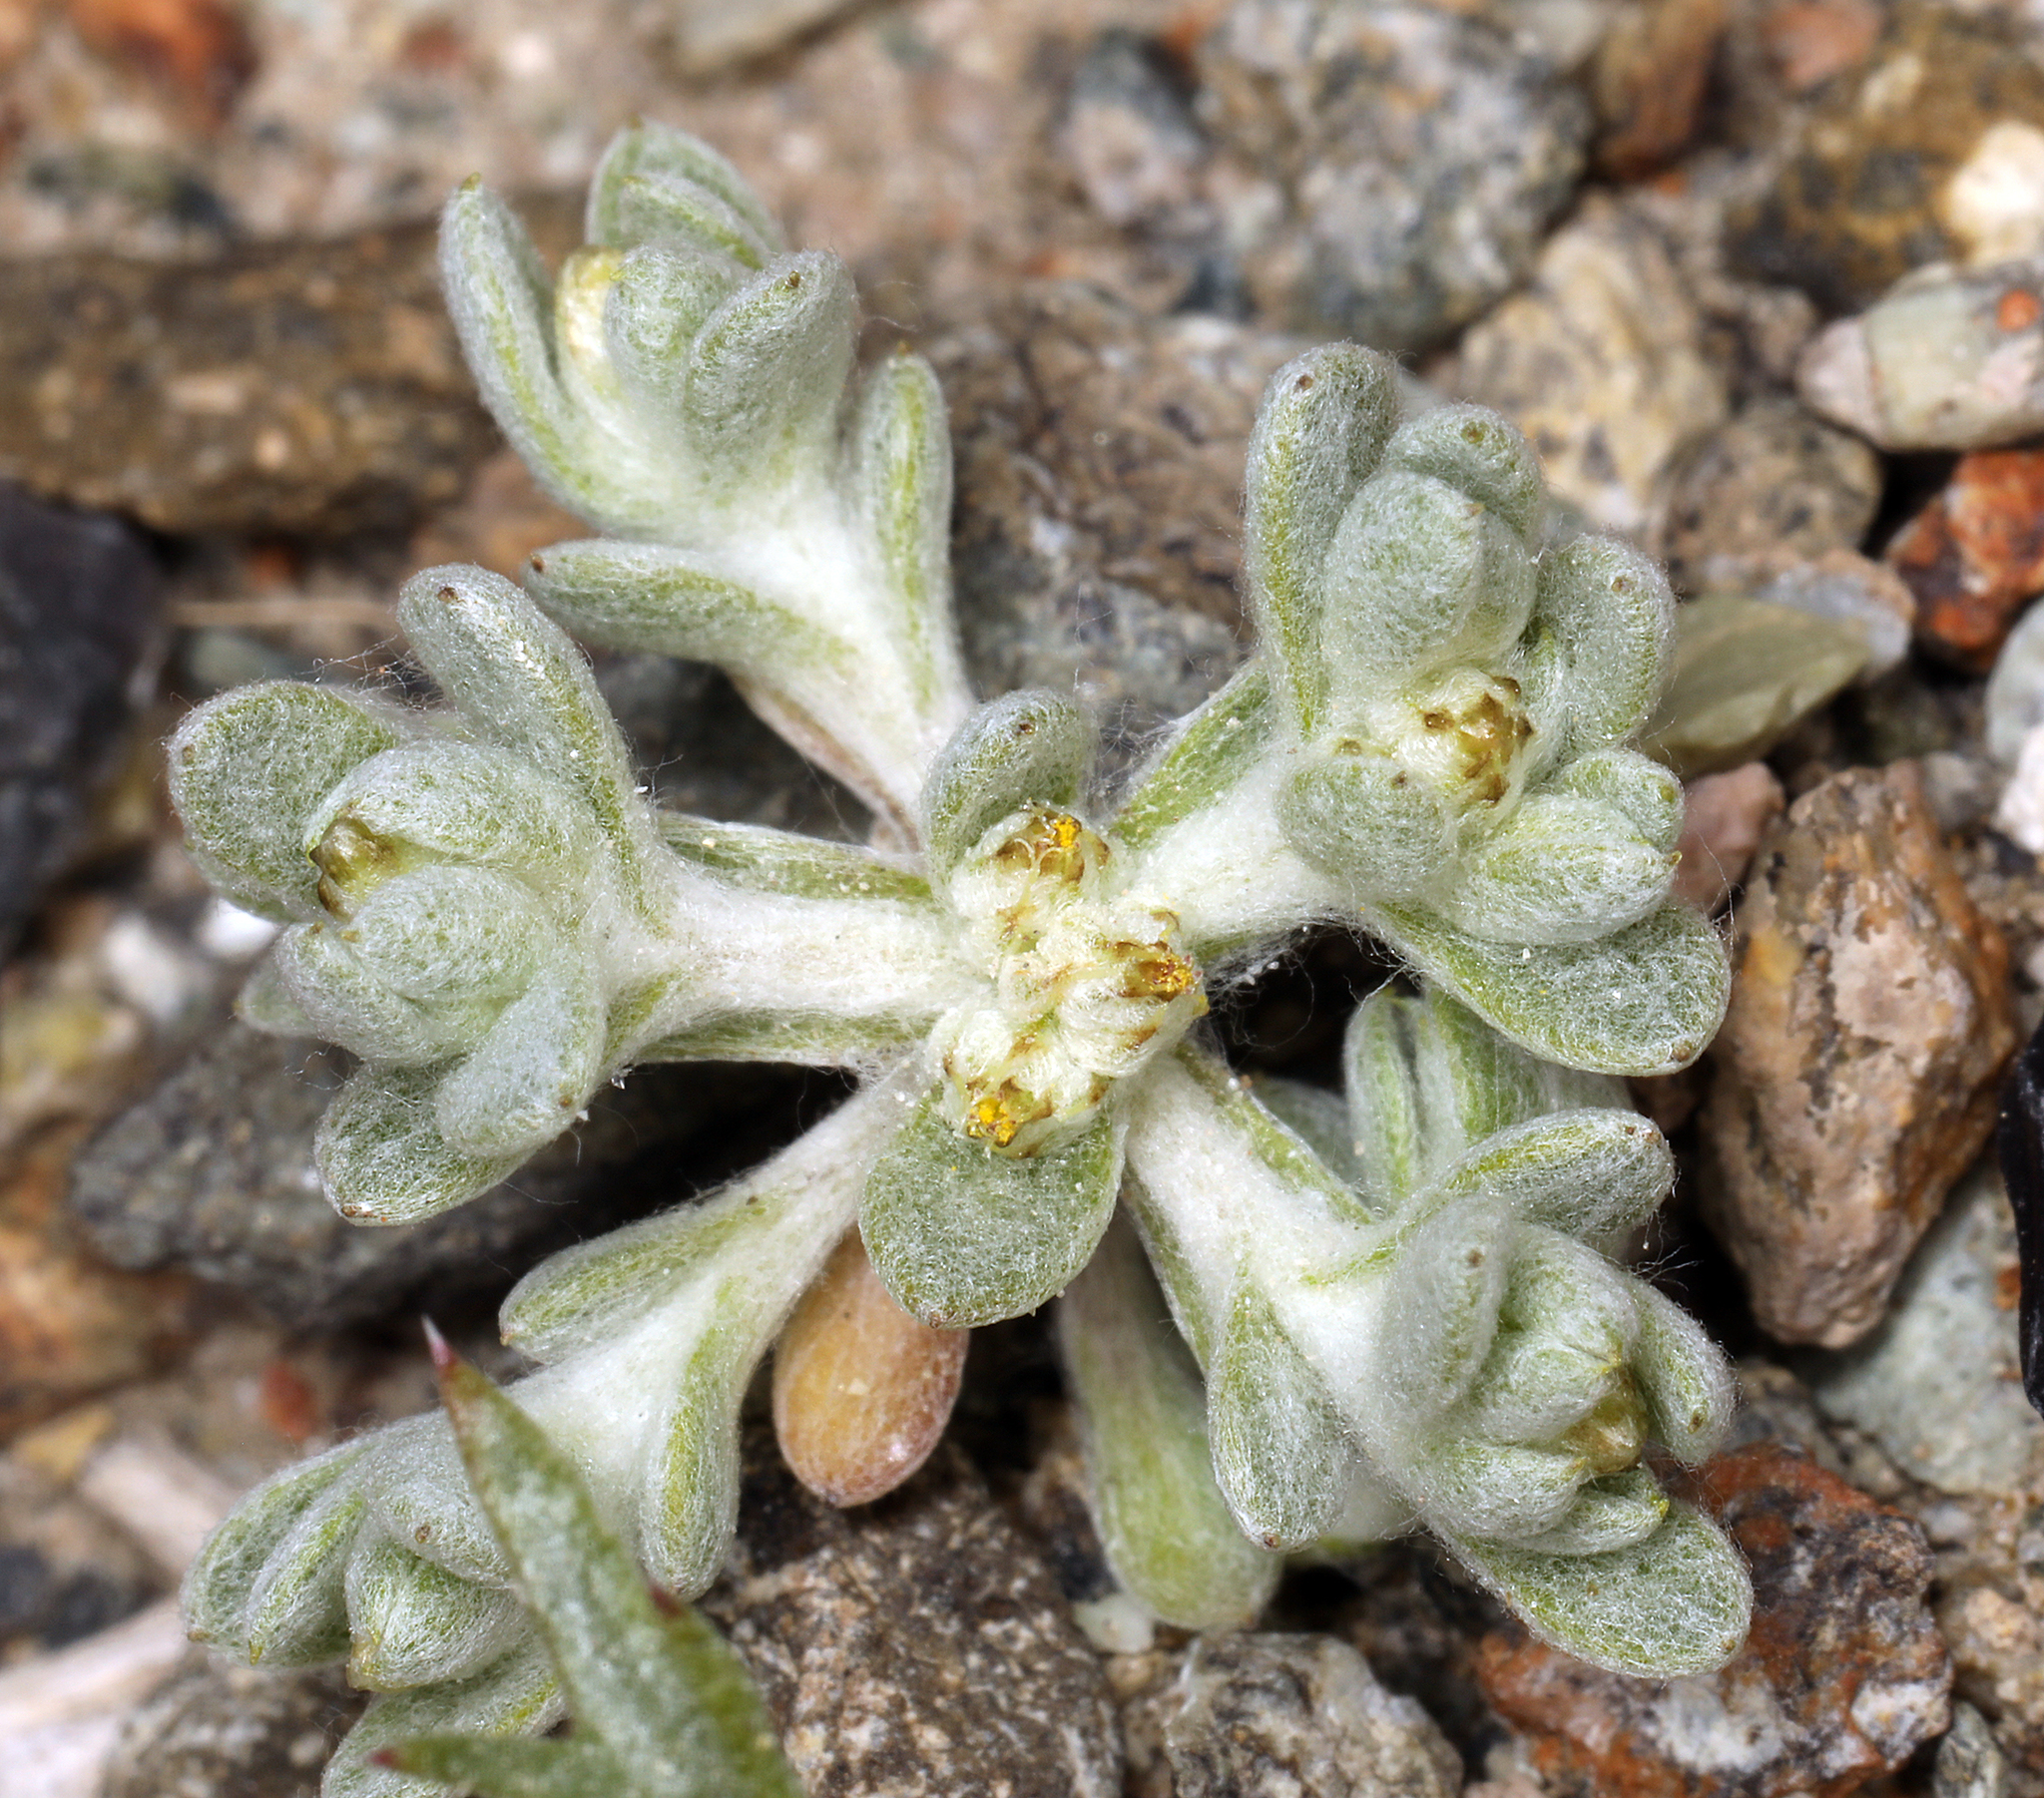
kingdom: Plantae
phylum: Tracheophyta
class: Magnoliopsida
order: Asterales
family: Asteraceae
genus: Logfia
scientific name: Logfia depressa
